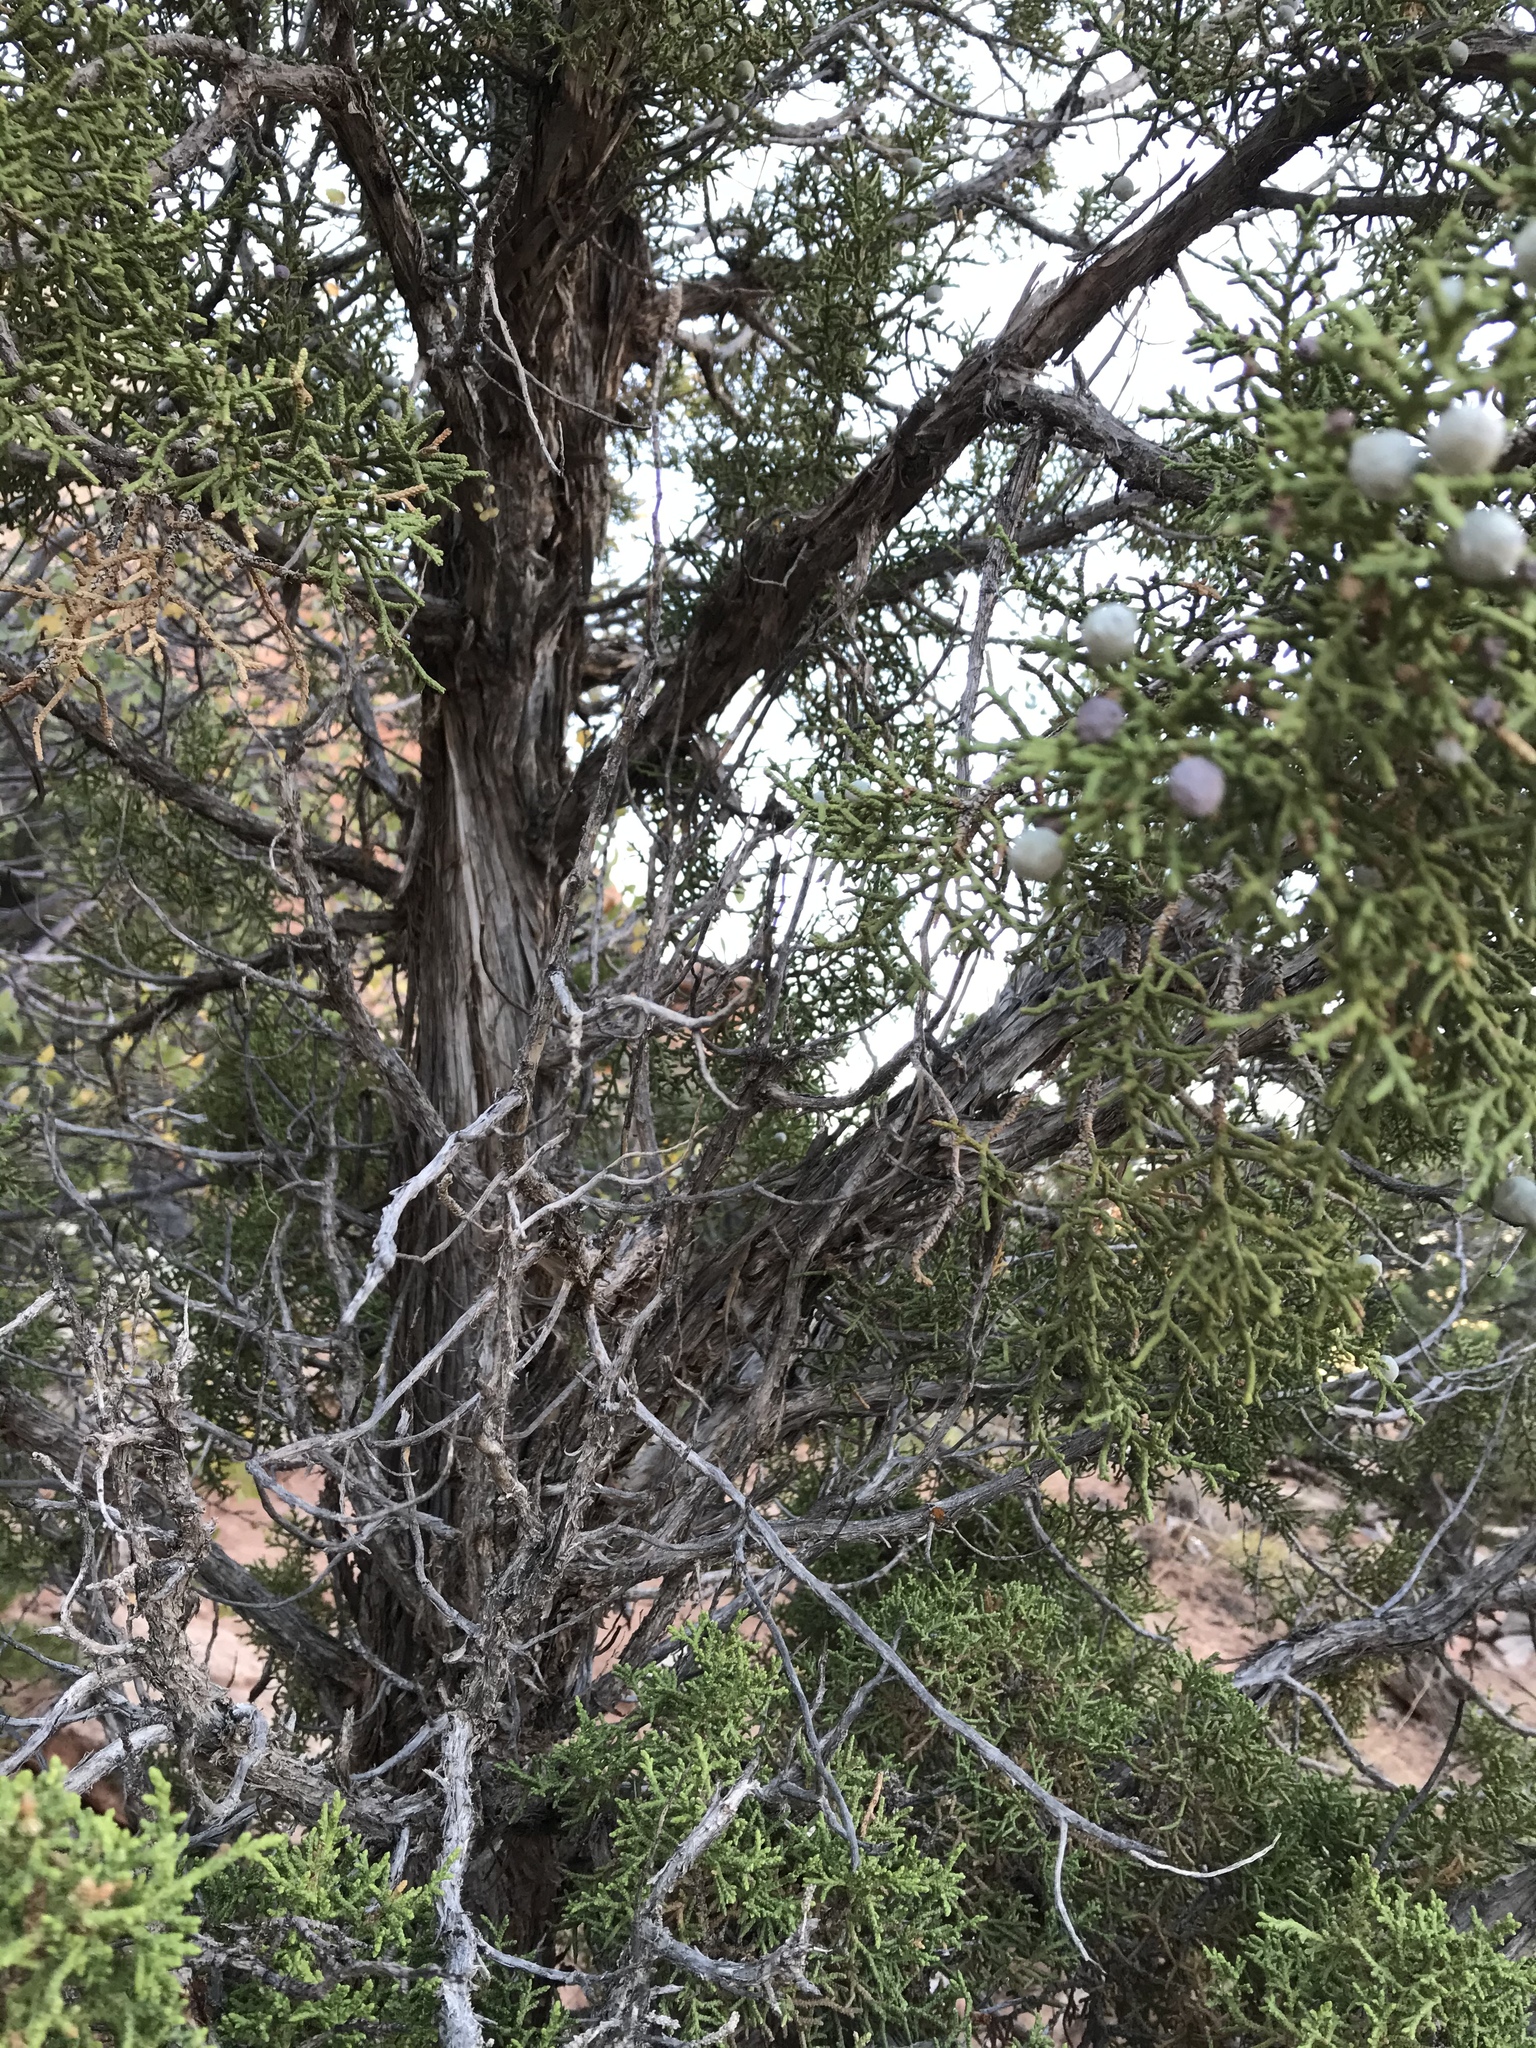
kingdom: Plantae
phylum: Tracheophyta
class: Pinopsida
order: Pinales
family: Cupressaceae
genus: Juniperus
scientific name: Juniperus osteosperma
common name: Utah juniper
